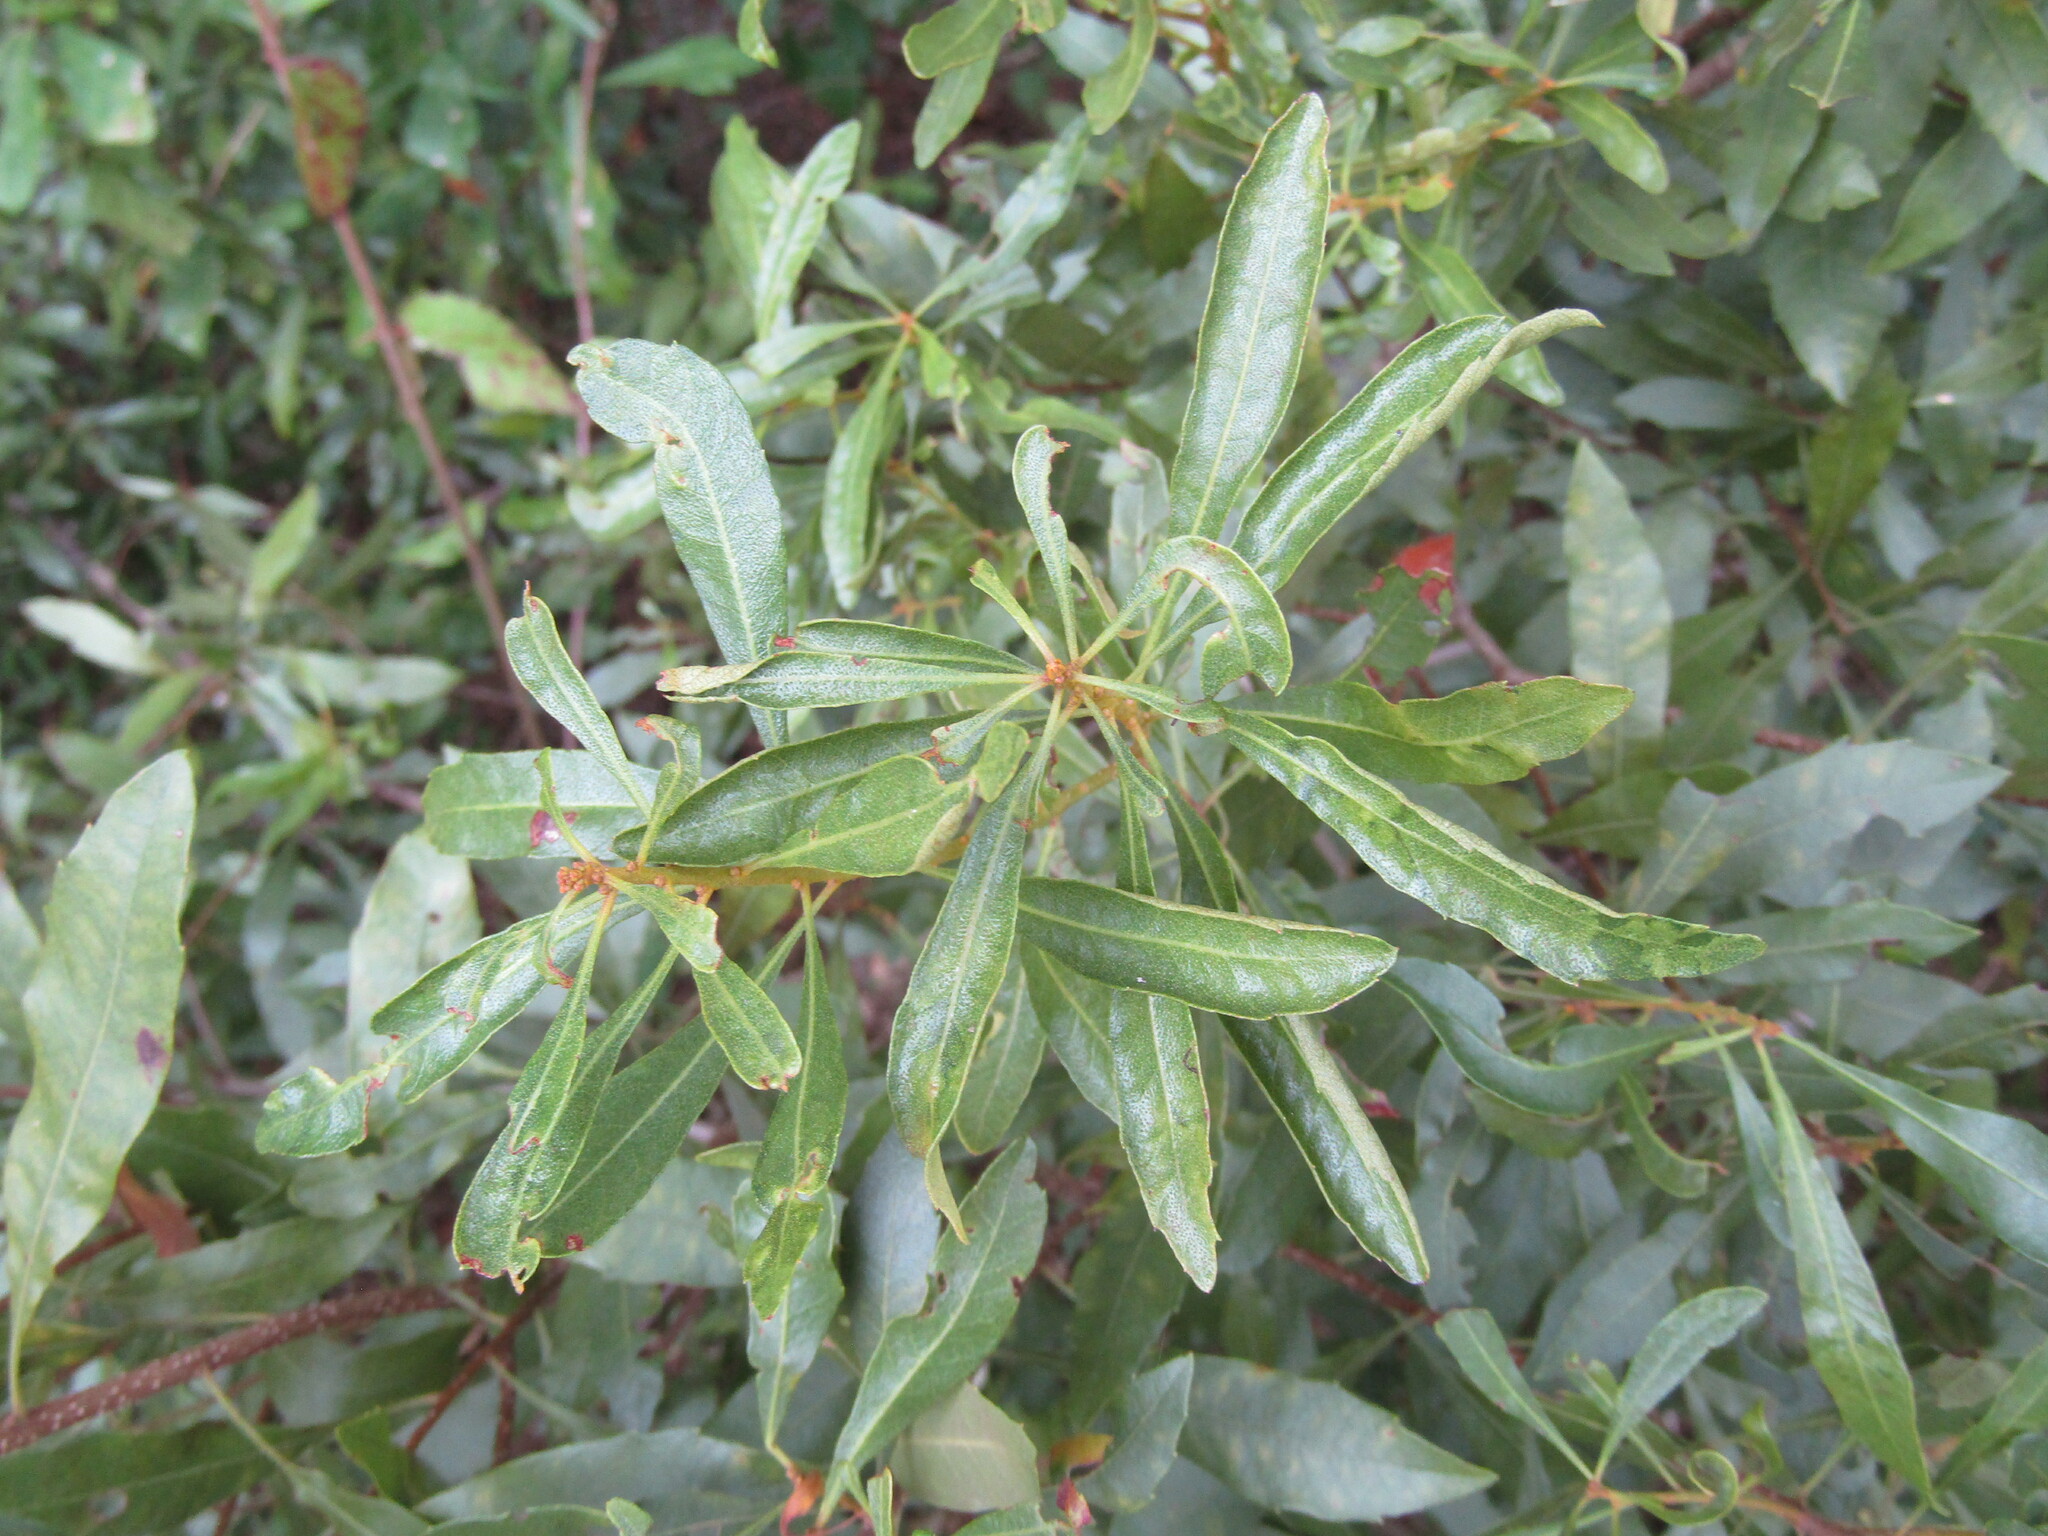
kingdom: Plantae
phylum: Tracheophyta
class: Magnoliopsida
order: Fagales
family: Myricaceae
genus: Morella
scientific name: Morella cerifera
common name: Wax myrtle
